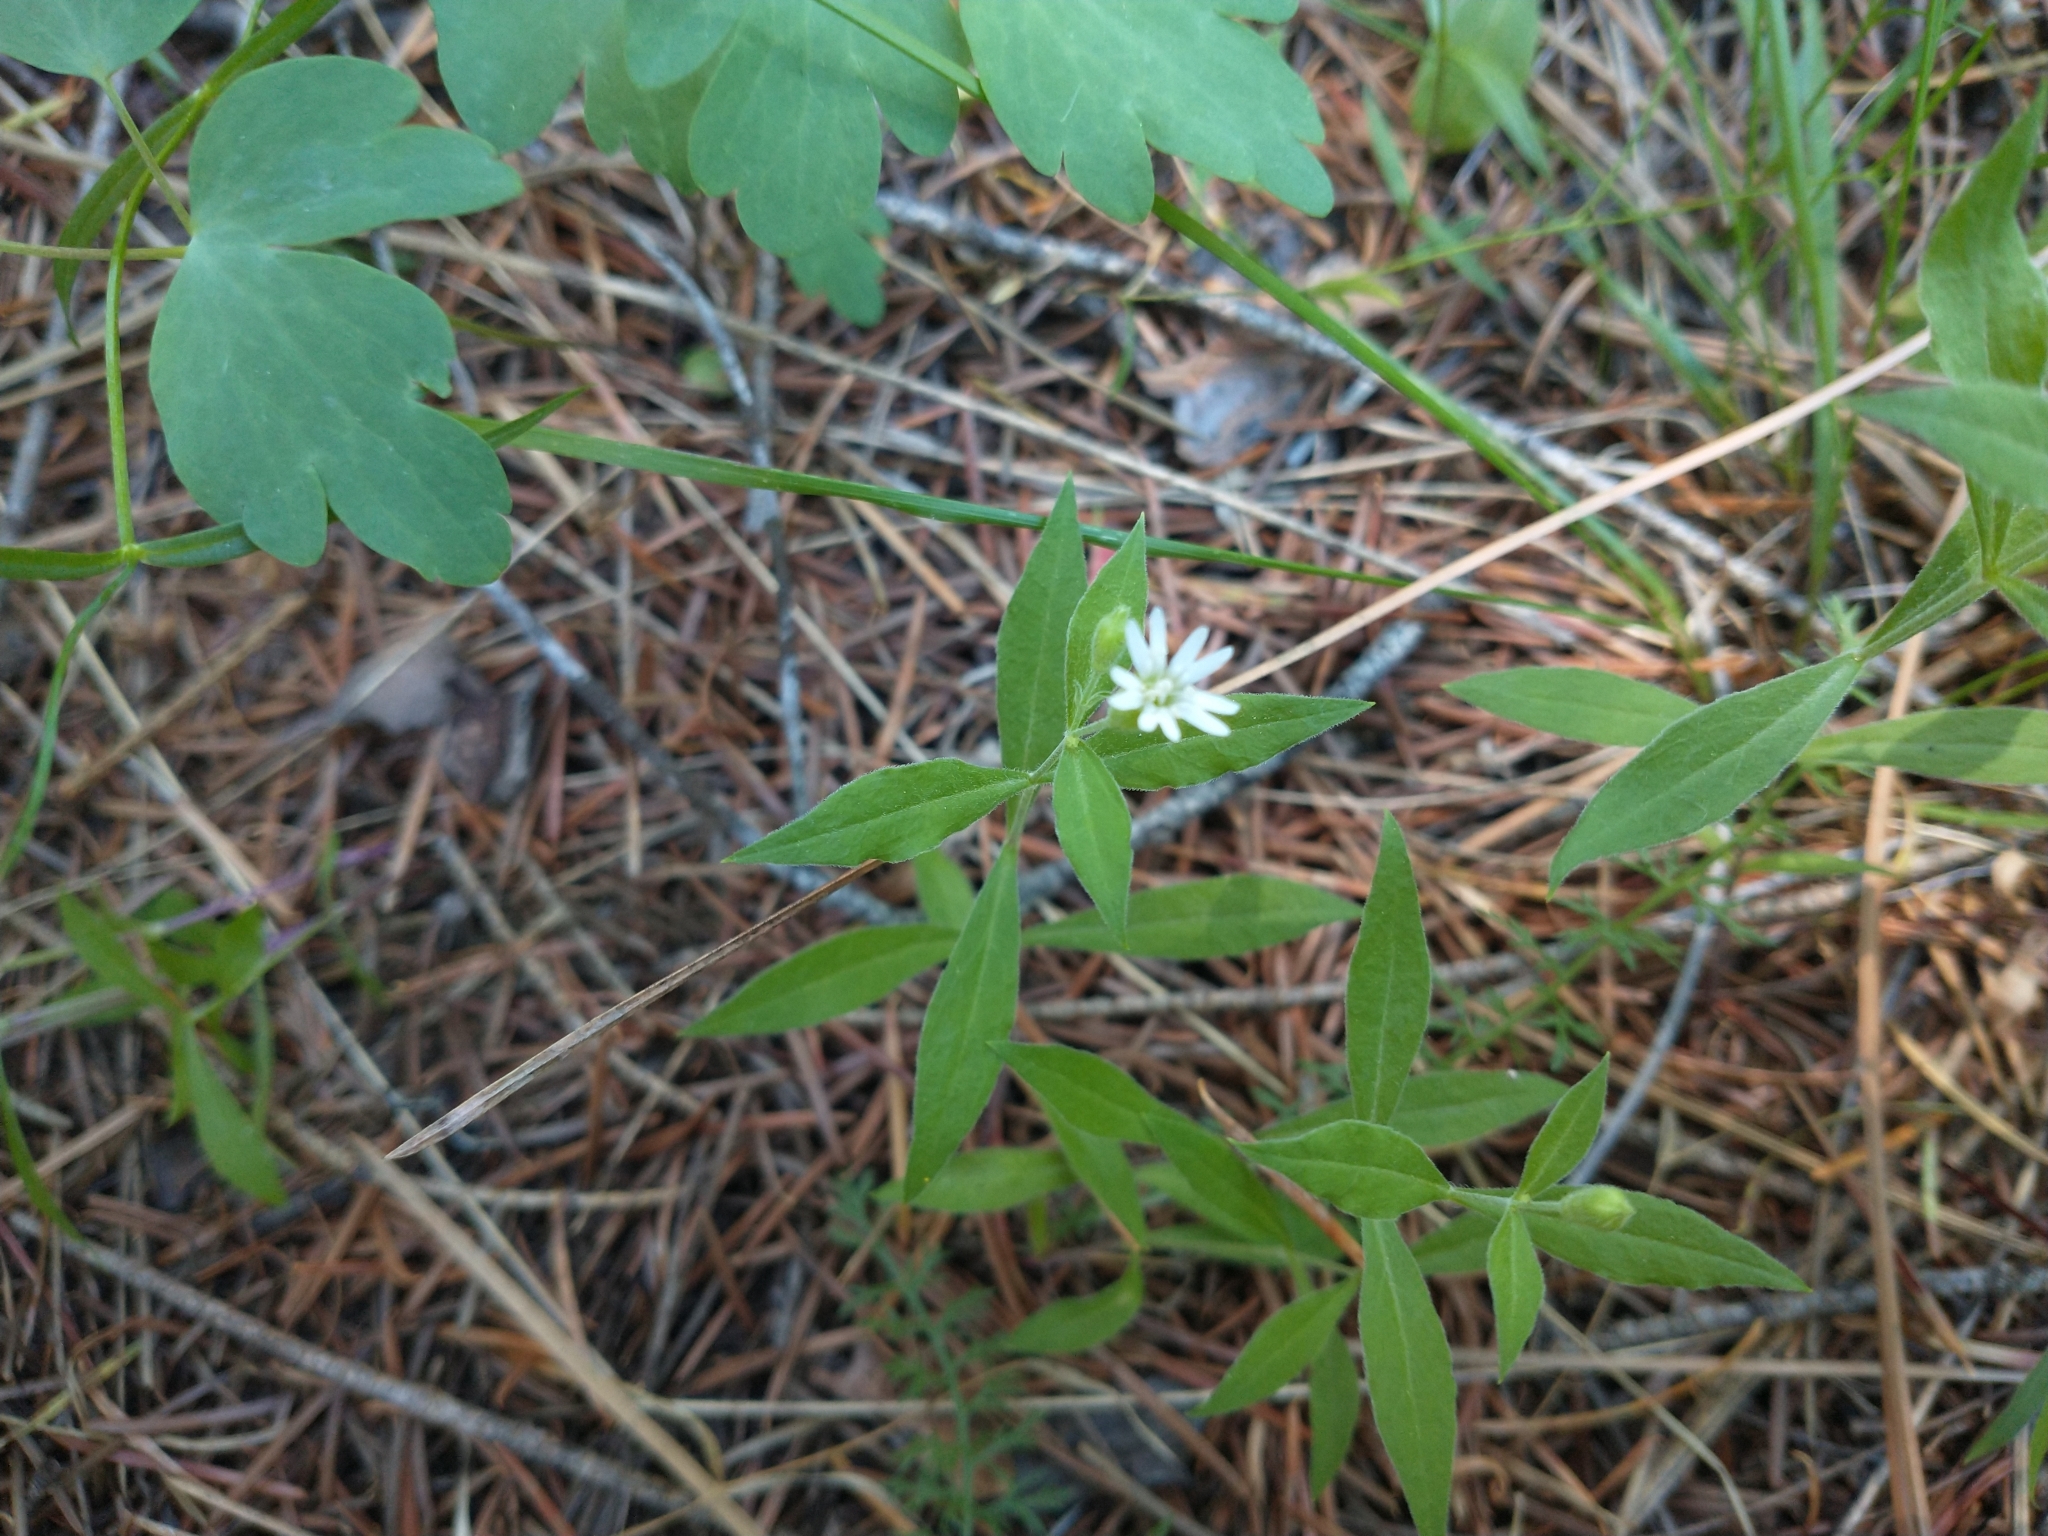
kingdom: Plantae
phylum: Tracheophyta
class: Magnoliopsida
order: Caryophyllales
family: Caryophyllaceae
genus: Silene
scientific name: Silene menziesii
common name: Menzies's catchfly
